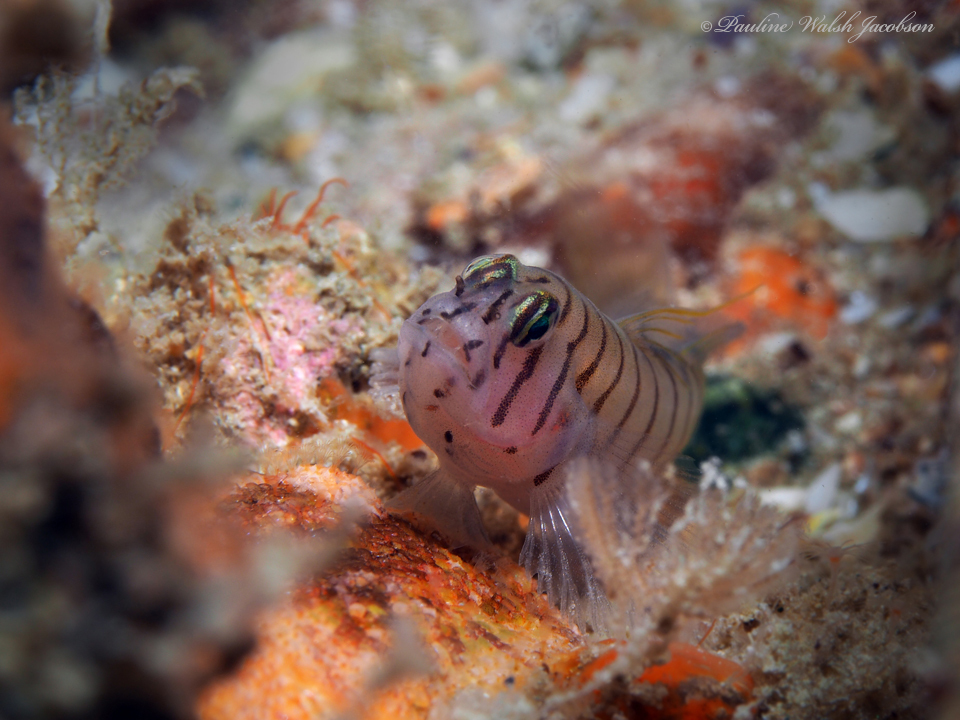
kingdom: Animalia
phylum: Chordata
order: Perciformes
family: Gobiidae
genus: Tigrigobius
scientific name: Tigrigobius macrodon
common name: Tiger goby
